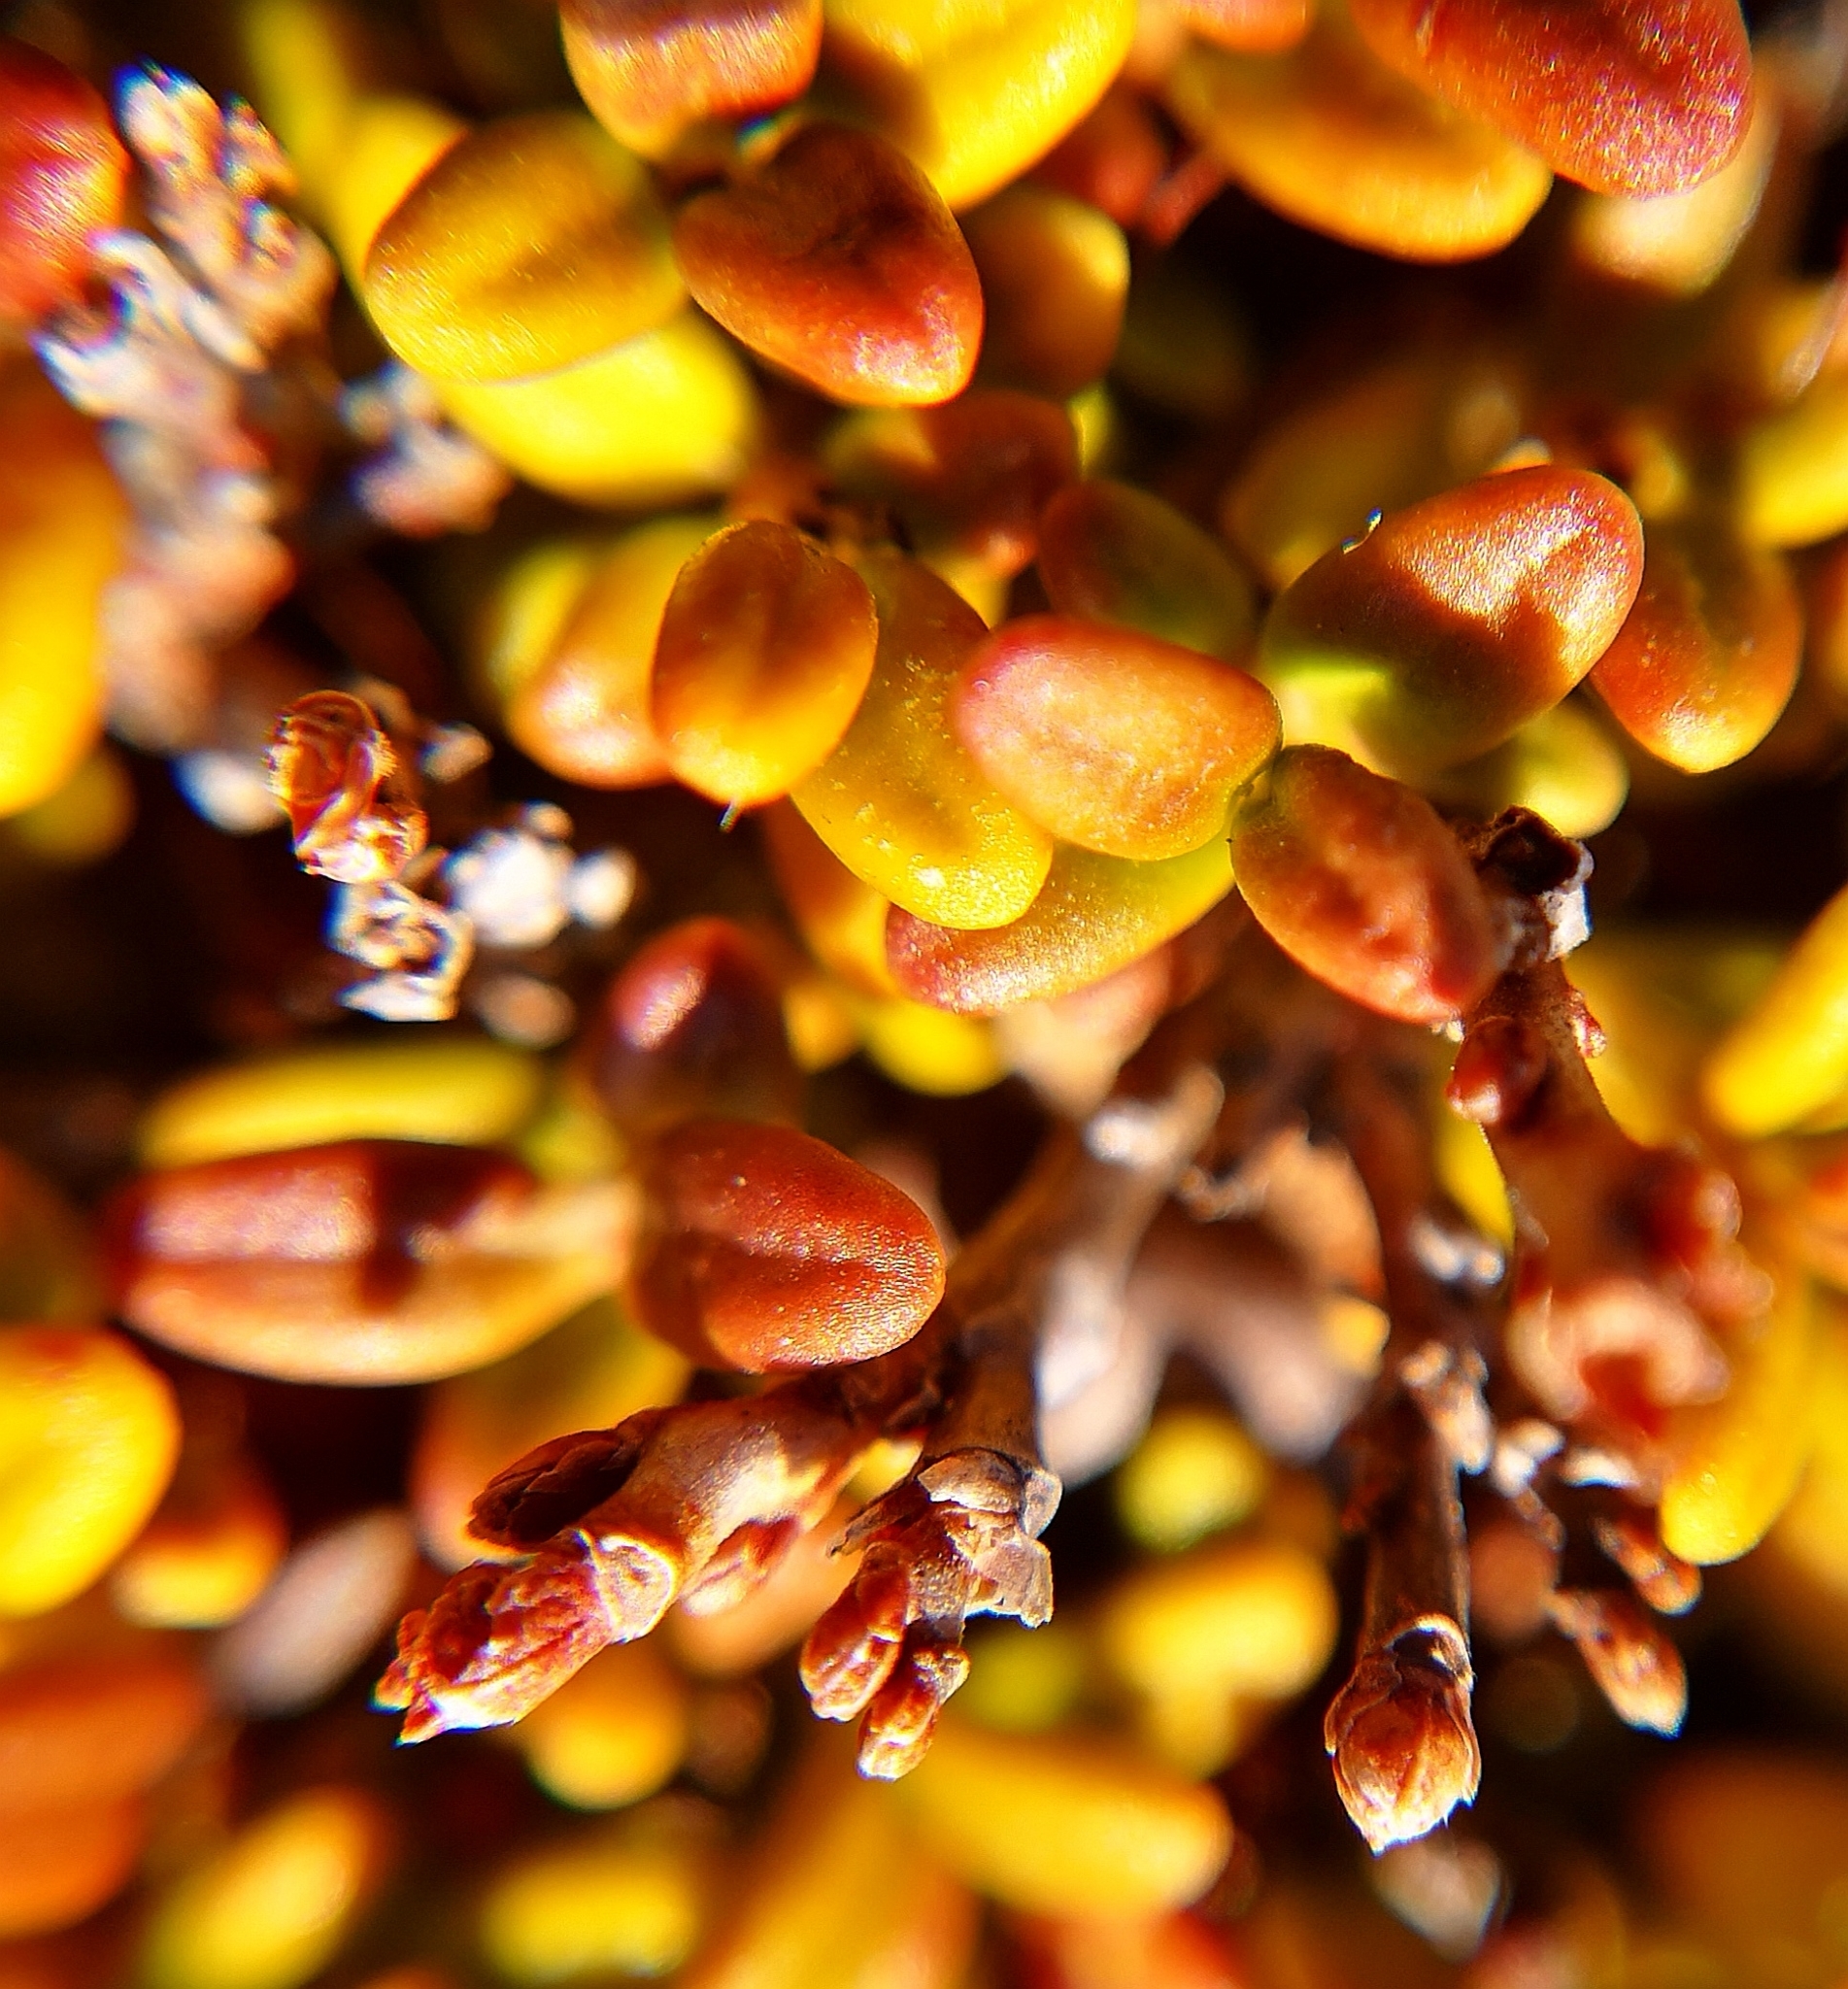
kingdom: Plantae
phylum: Tracheophyta
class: Magnoliopsida
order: Ericales
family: Ericaceae
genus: Kalmia
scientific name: Kalmia procumbens
